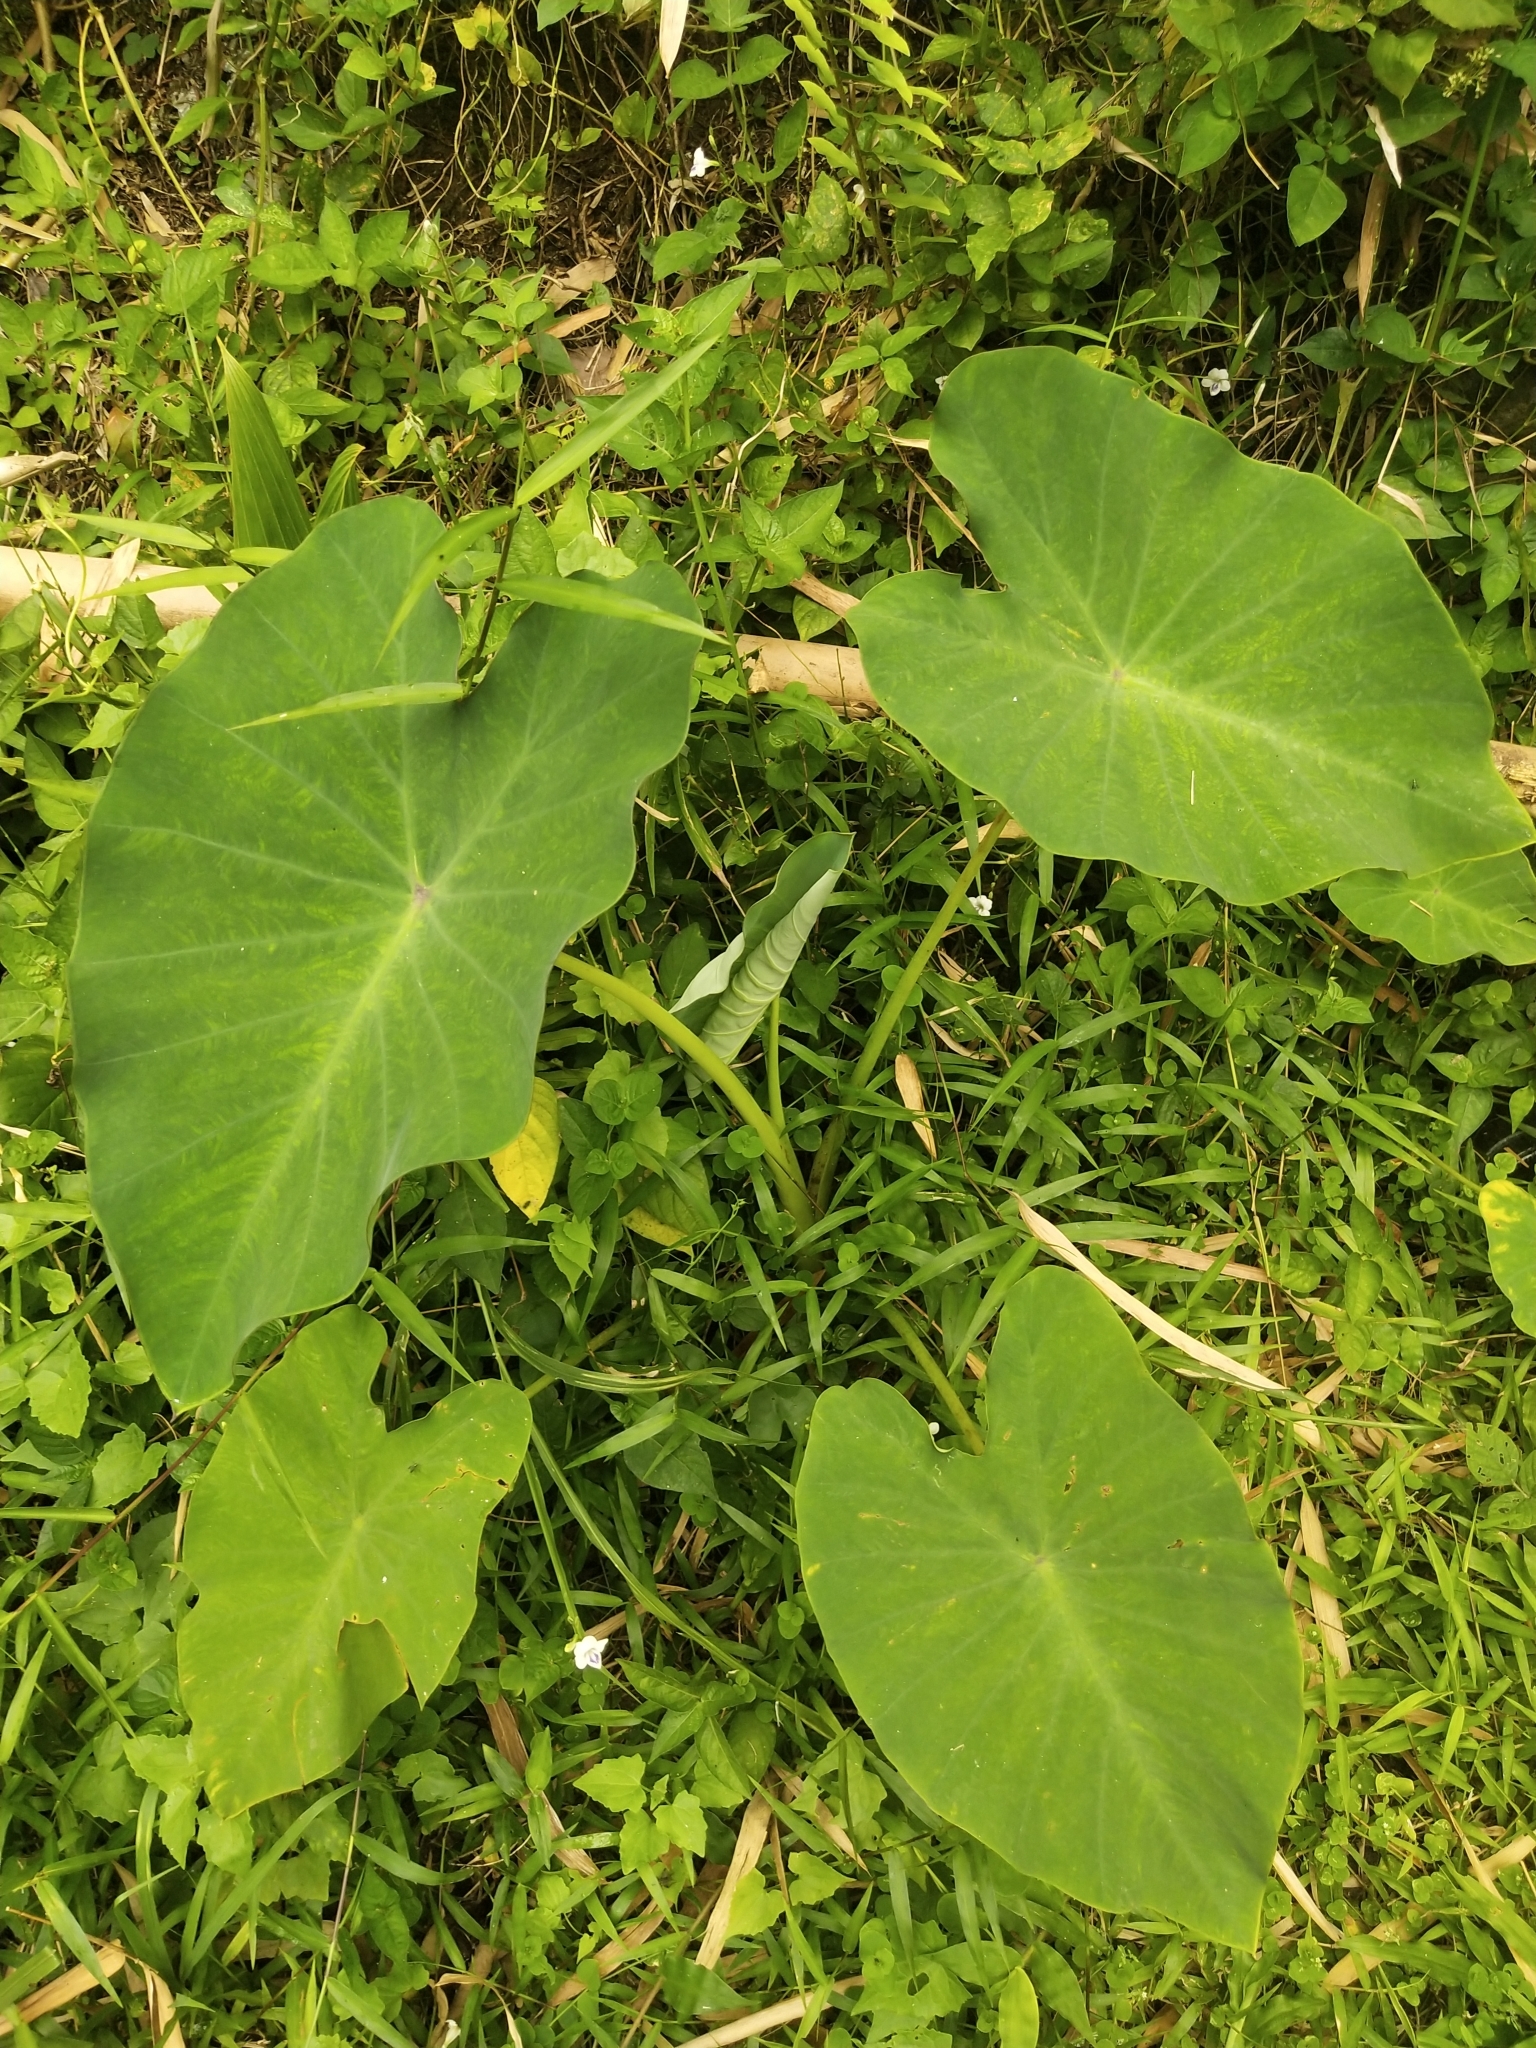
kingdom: Plantae
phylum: Tracheophyta
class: Liliopsida
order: Alismatales
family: Araceae
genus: Colocasia
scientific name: Colocasia esculenta
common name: Taro
